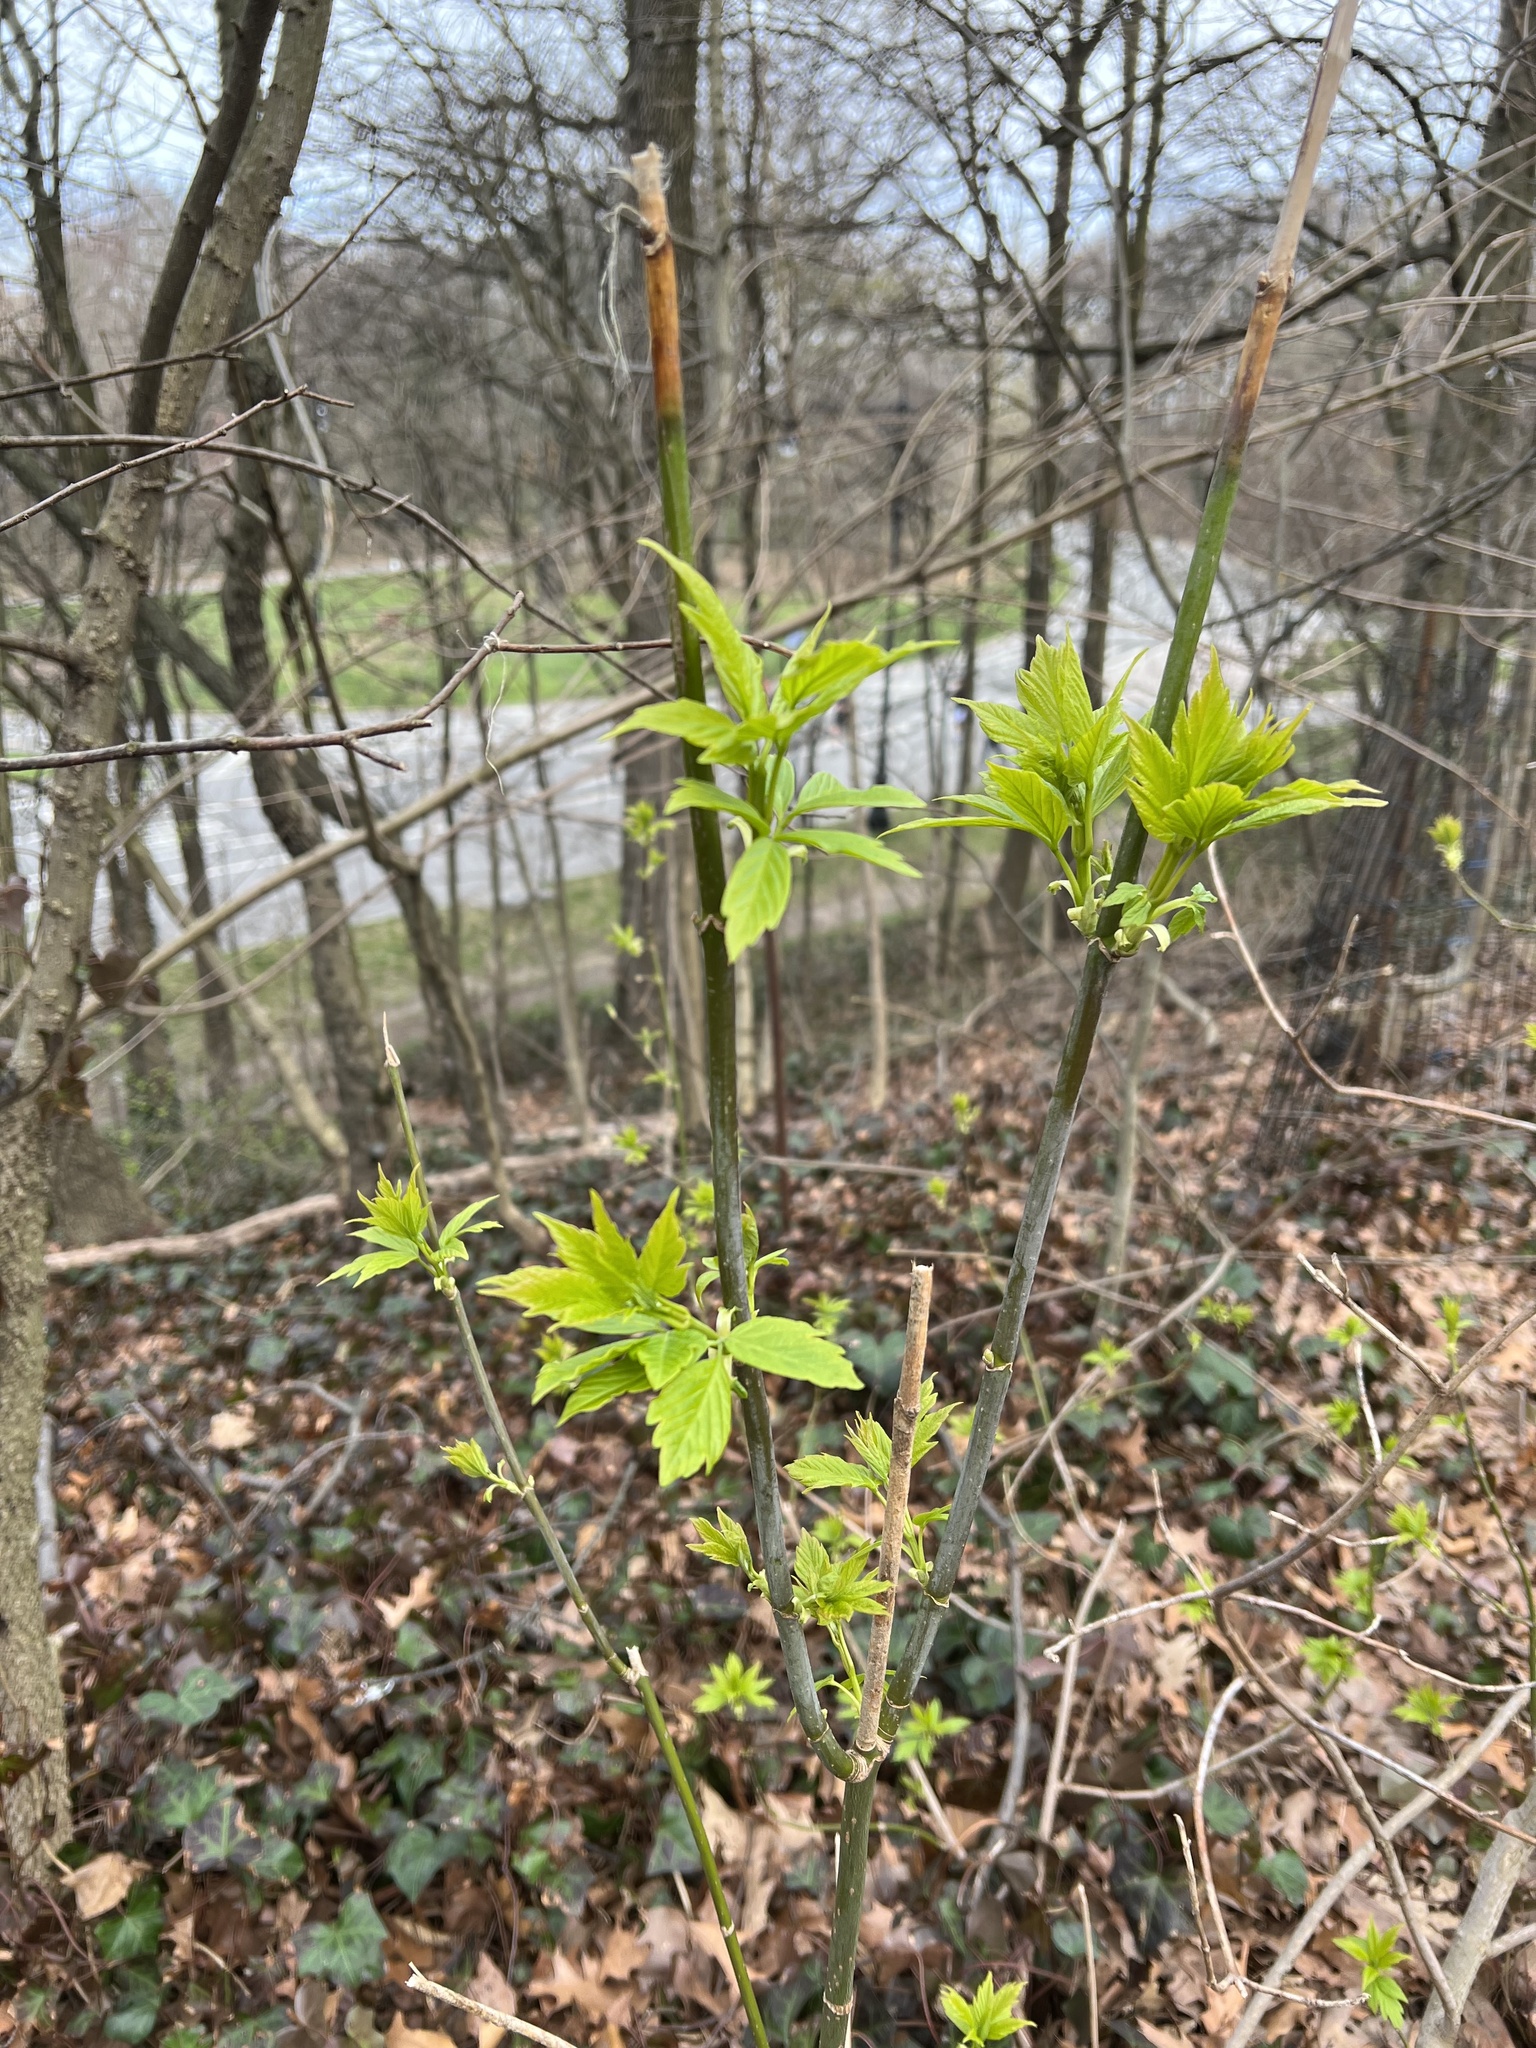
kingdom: Plantae
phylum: Tracheophyta
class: Magnoliopsida
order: Sapindales
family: Sapindaceae
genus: Acer
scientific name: Acer negundo
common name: Ashleaf maple
